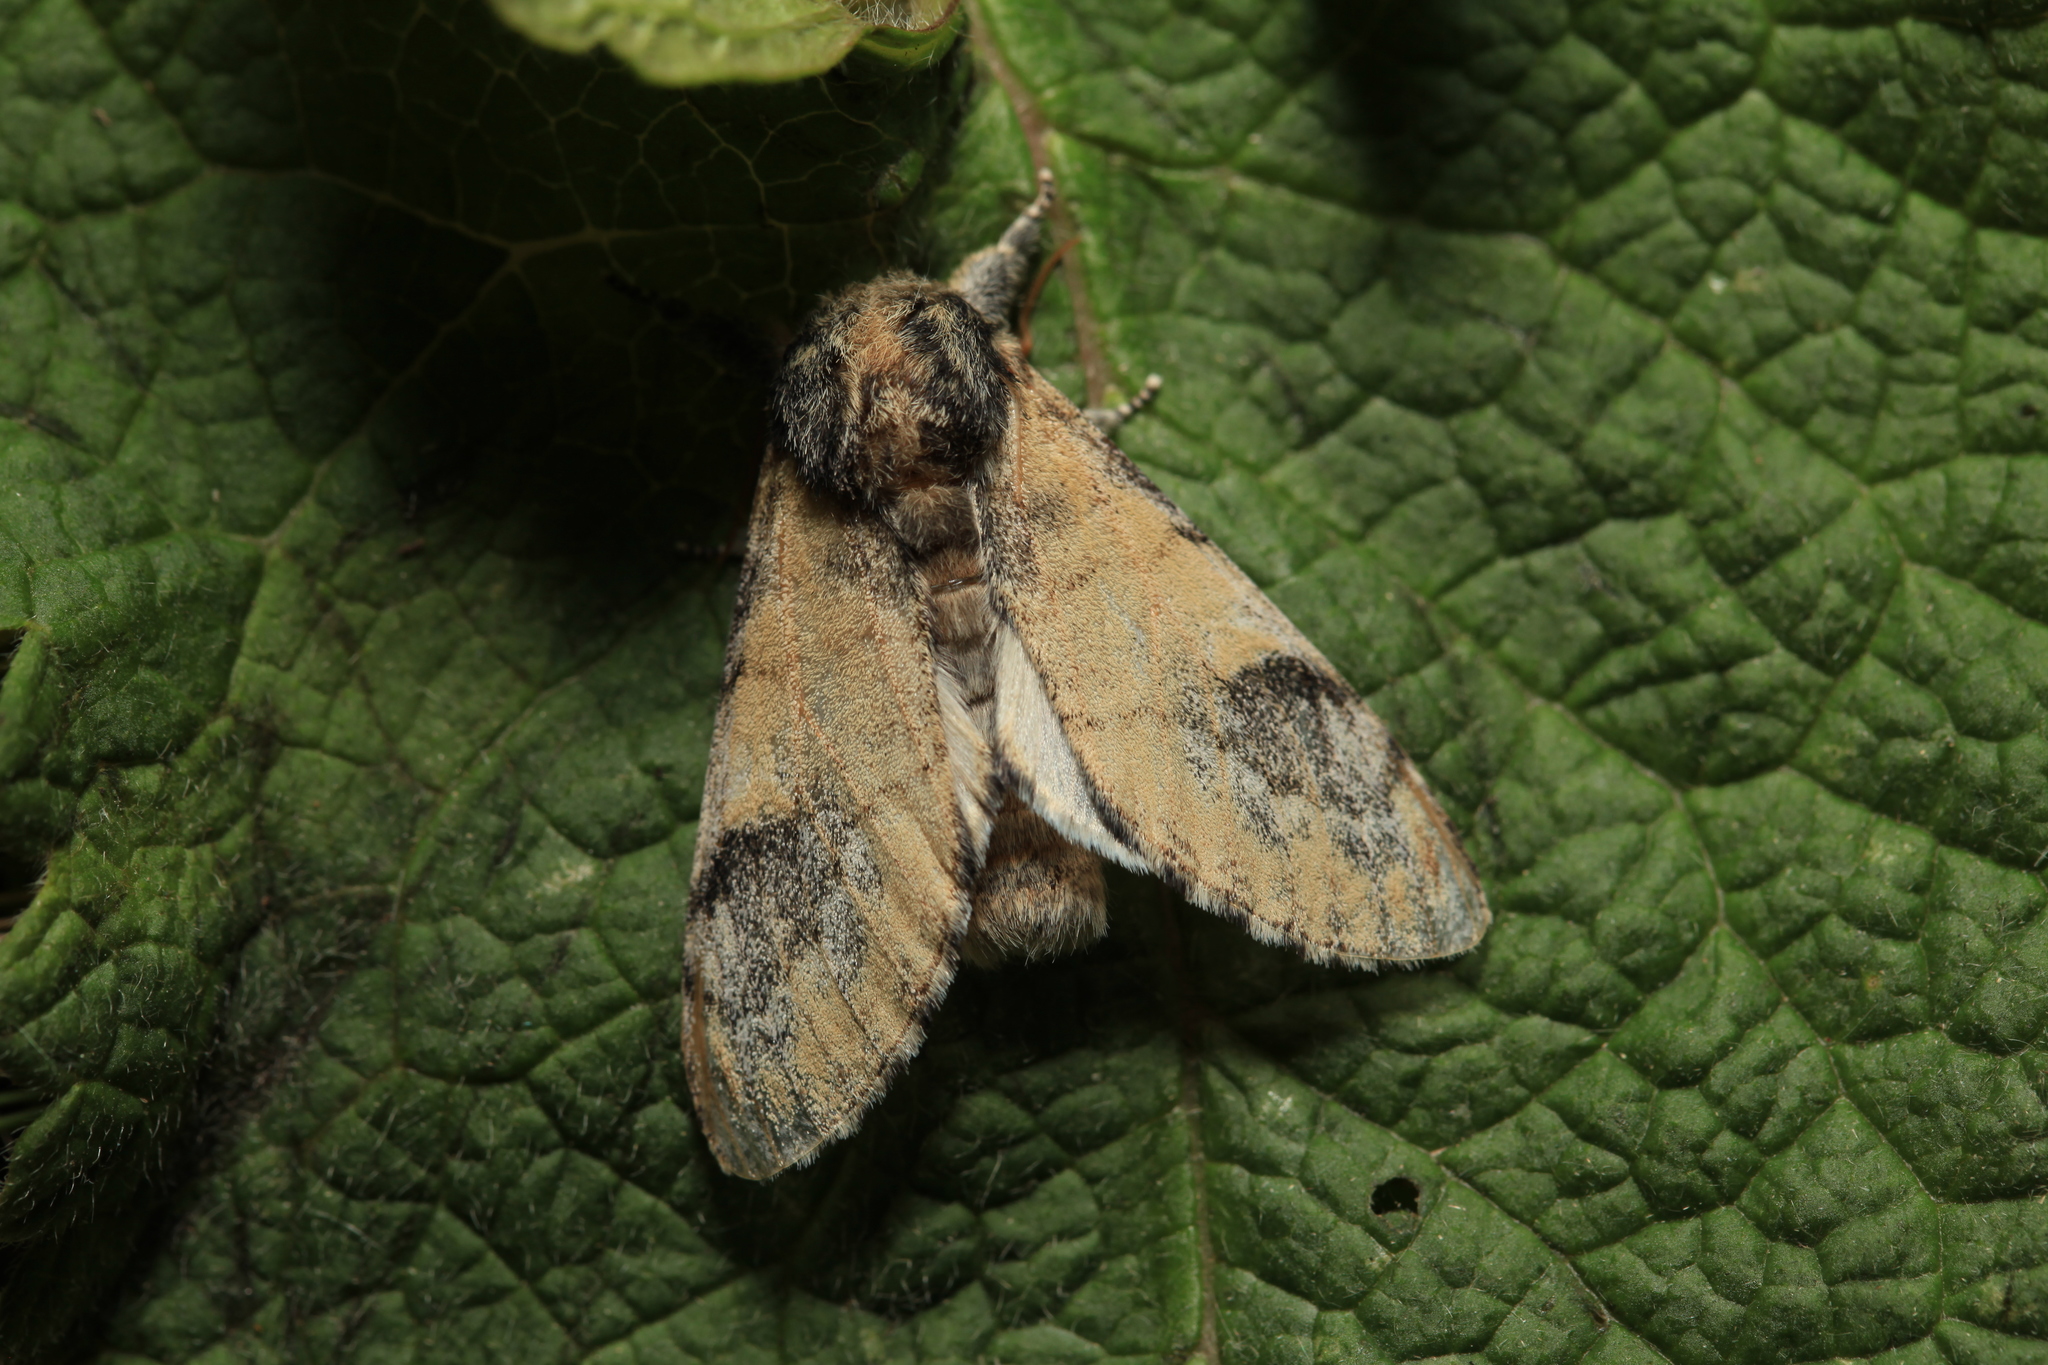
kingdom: Animalia
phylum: Arthropoda
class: Insecta
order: Lepidoptera
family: Notodontidae
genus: Notodonta
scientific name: Notodonta tritophus
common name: Three-humped prominent
